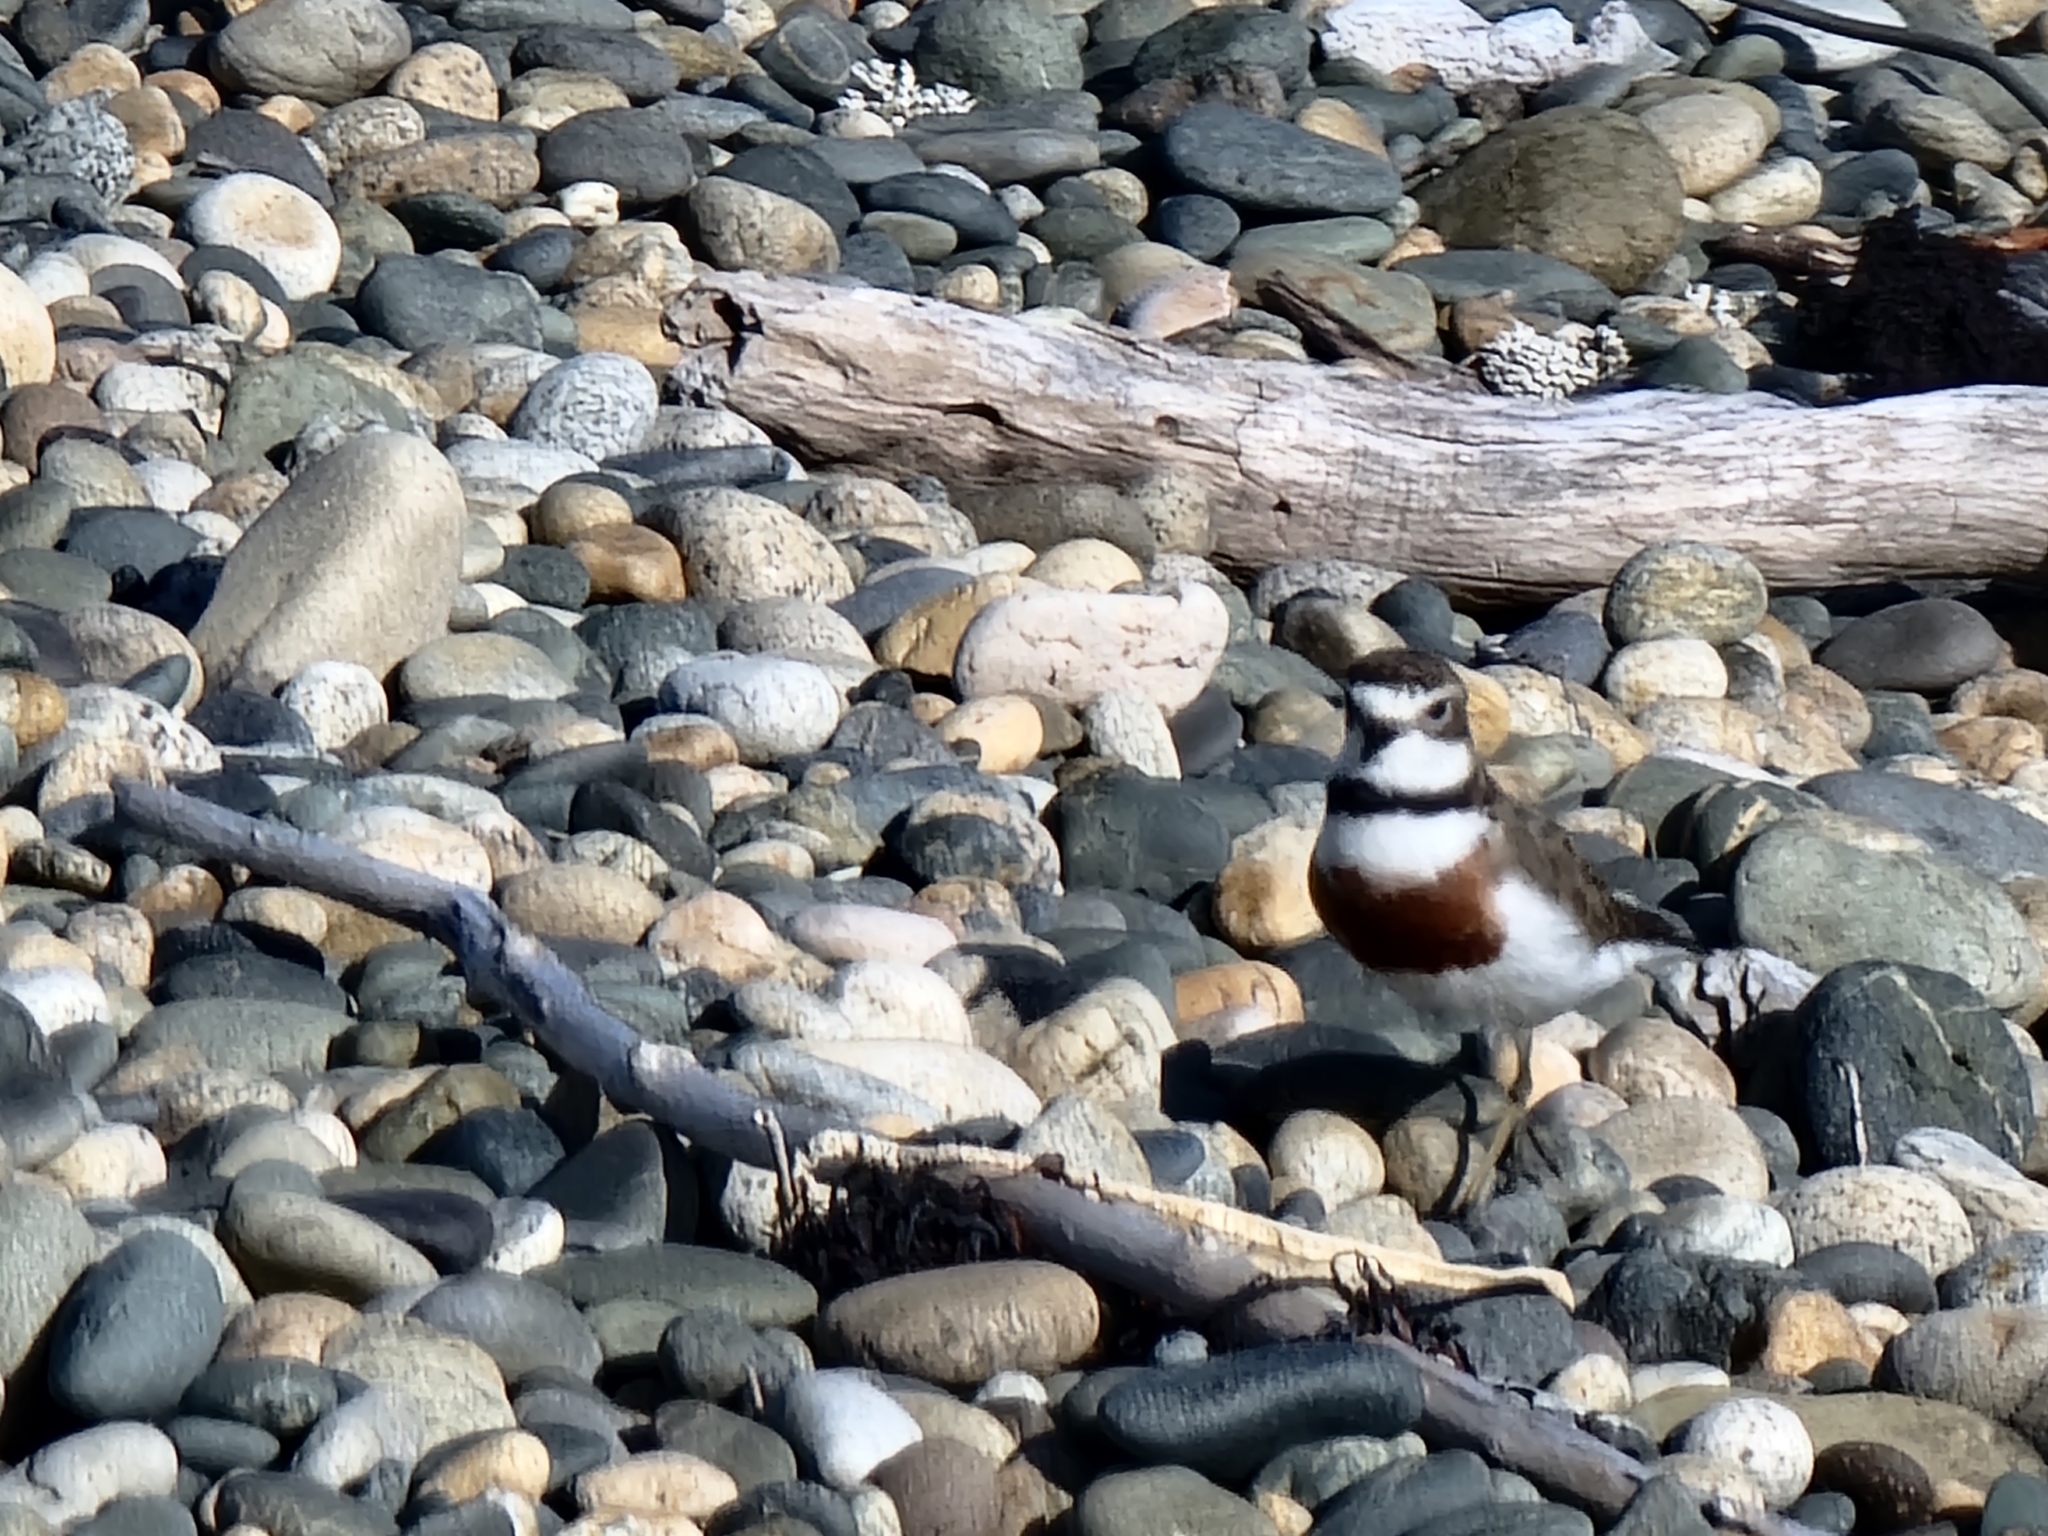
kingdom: Animalia
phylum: Chordata
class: Aves
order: Charadriiformes
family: Charadriidae
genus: Anarhynchus
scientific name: Anarhynchus
